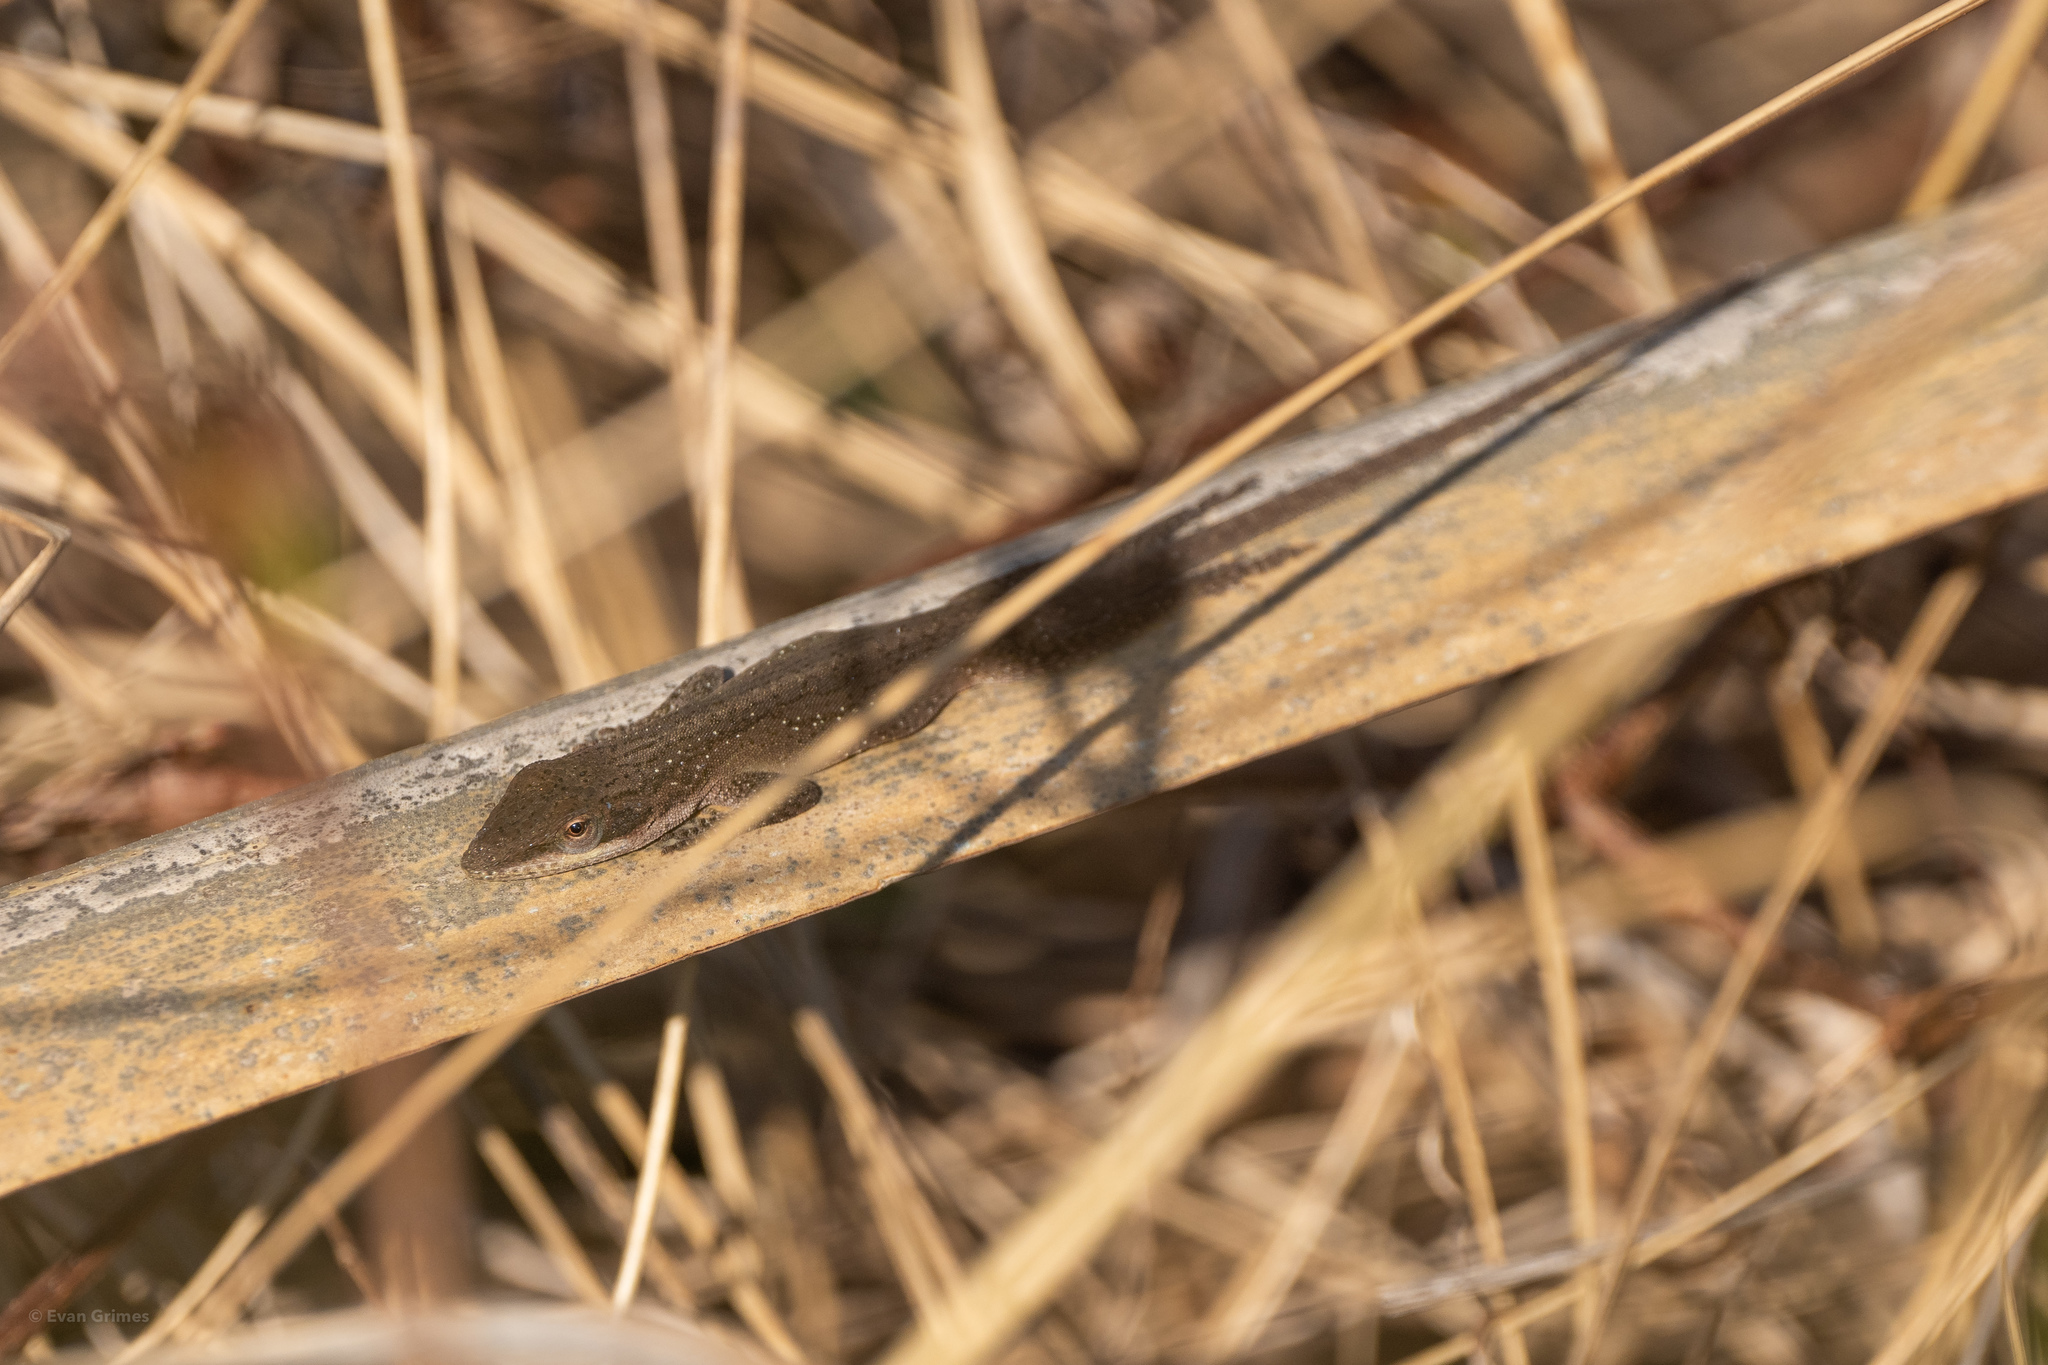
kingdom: Animalia
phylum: Chordata
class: Squamata
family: Dactyloidae
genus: Anolis
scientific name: Anolis carolinensis
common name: Green anole
